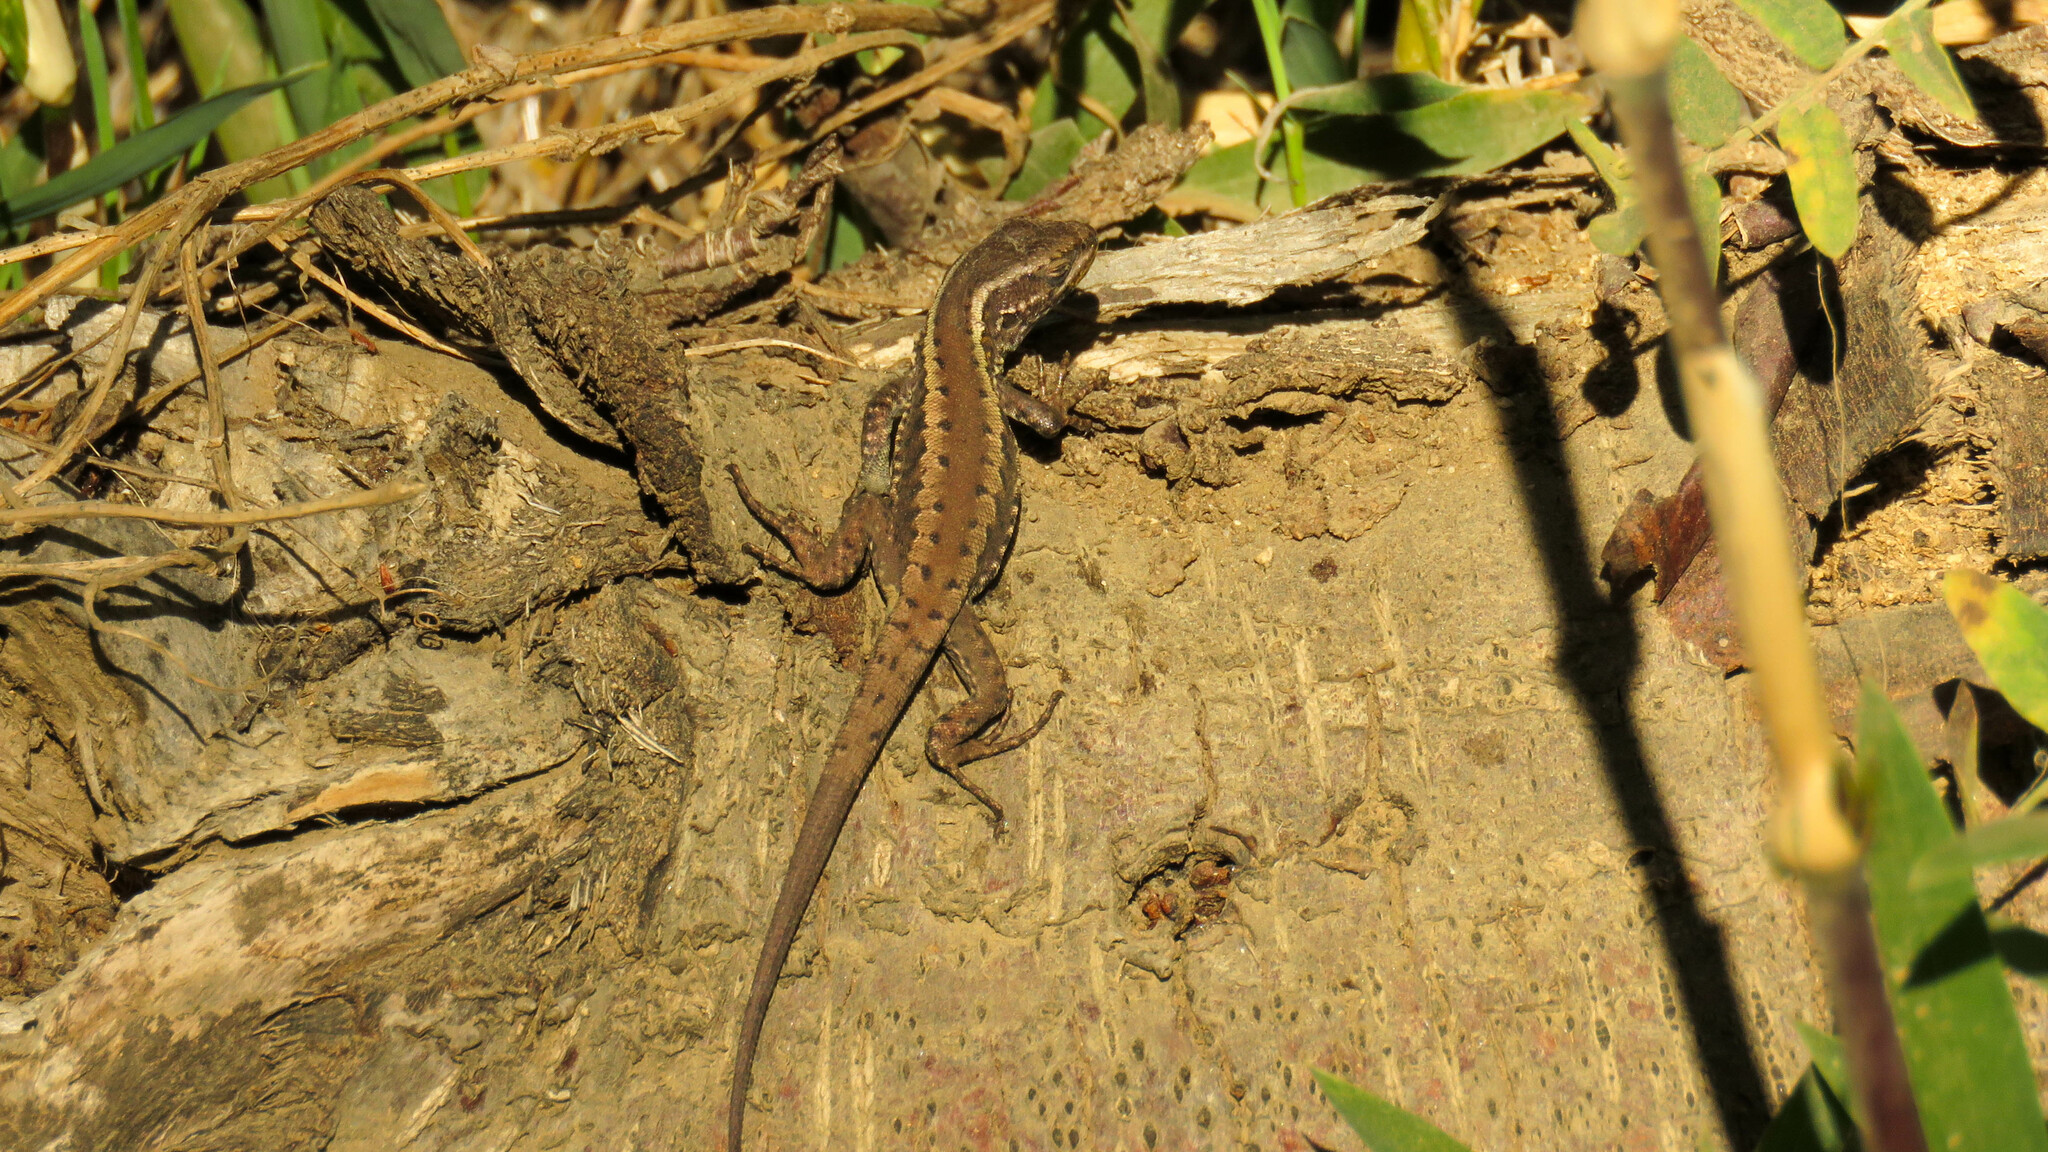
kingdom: Animalia
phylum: Chordata
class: Squamata
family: Liolaemidae
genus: Liolaemus
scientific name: Liolaemus pictus
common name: Painted tree iguana
